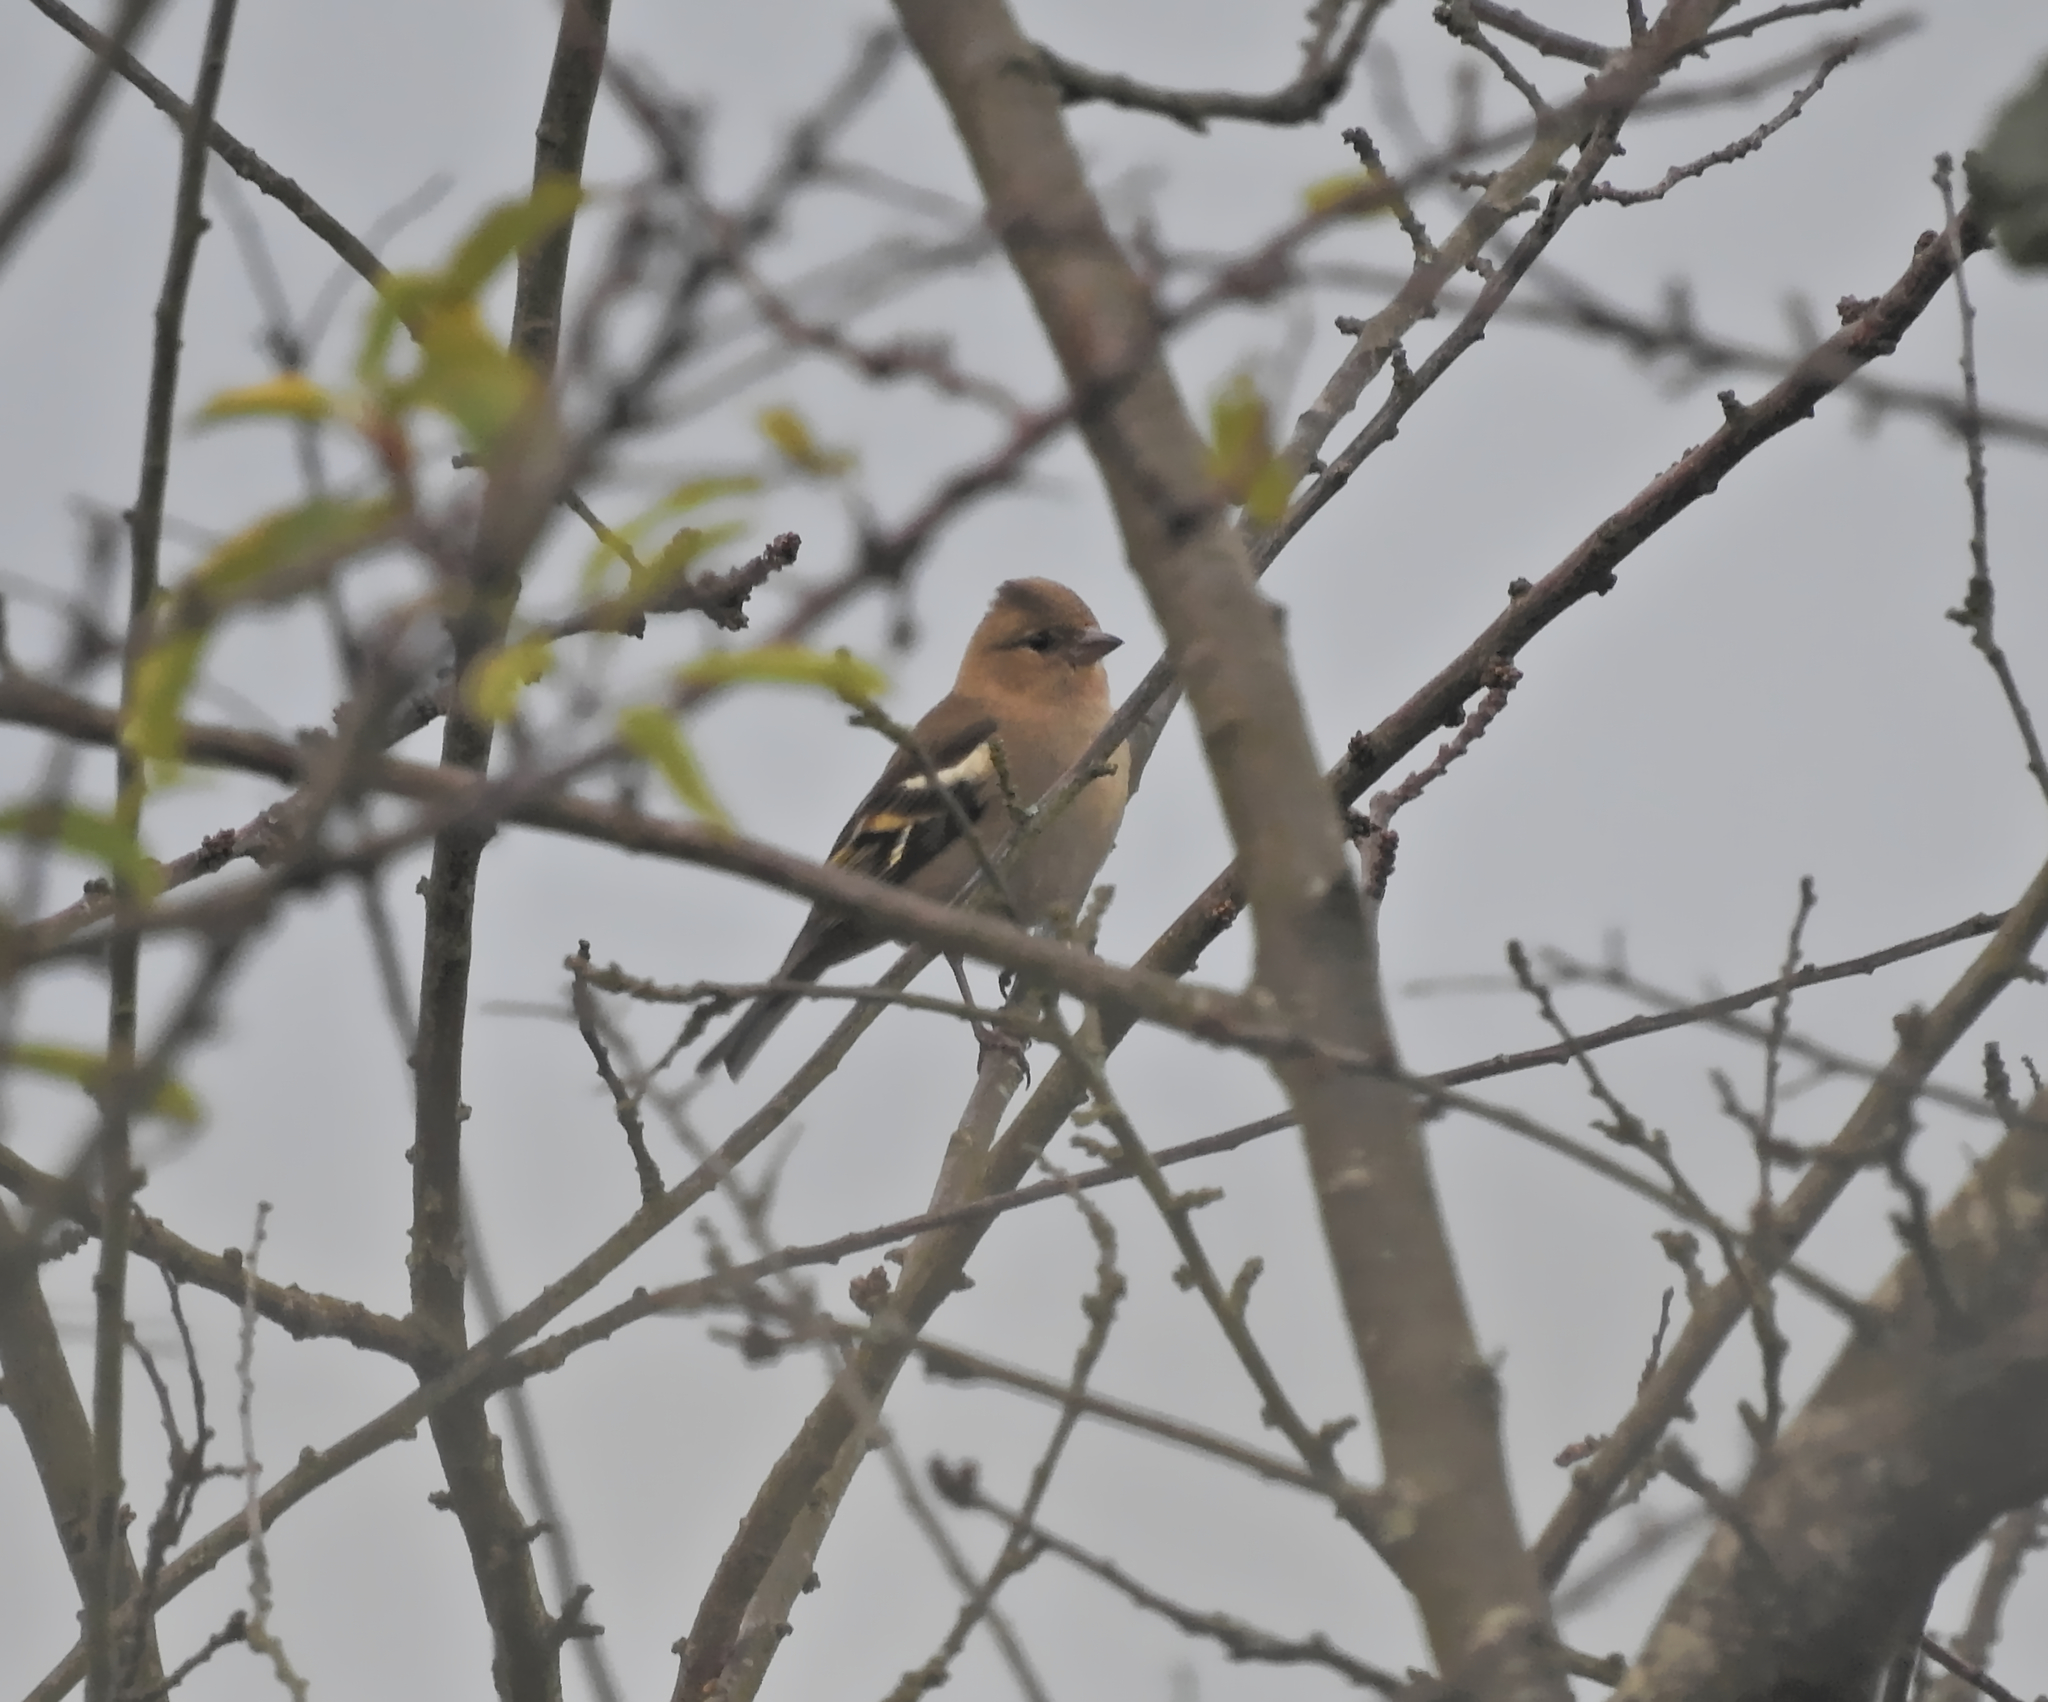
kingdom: Animalia
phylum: Chordata
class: Aves
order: Passeriformes
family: Fringillidae
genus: Fringilla
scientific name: Fringilla coelebs
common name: Common chaffinch
